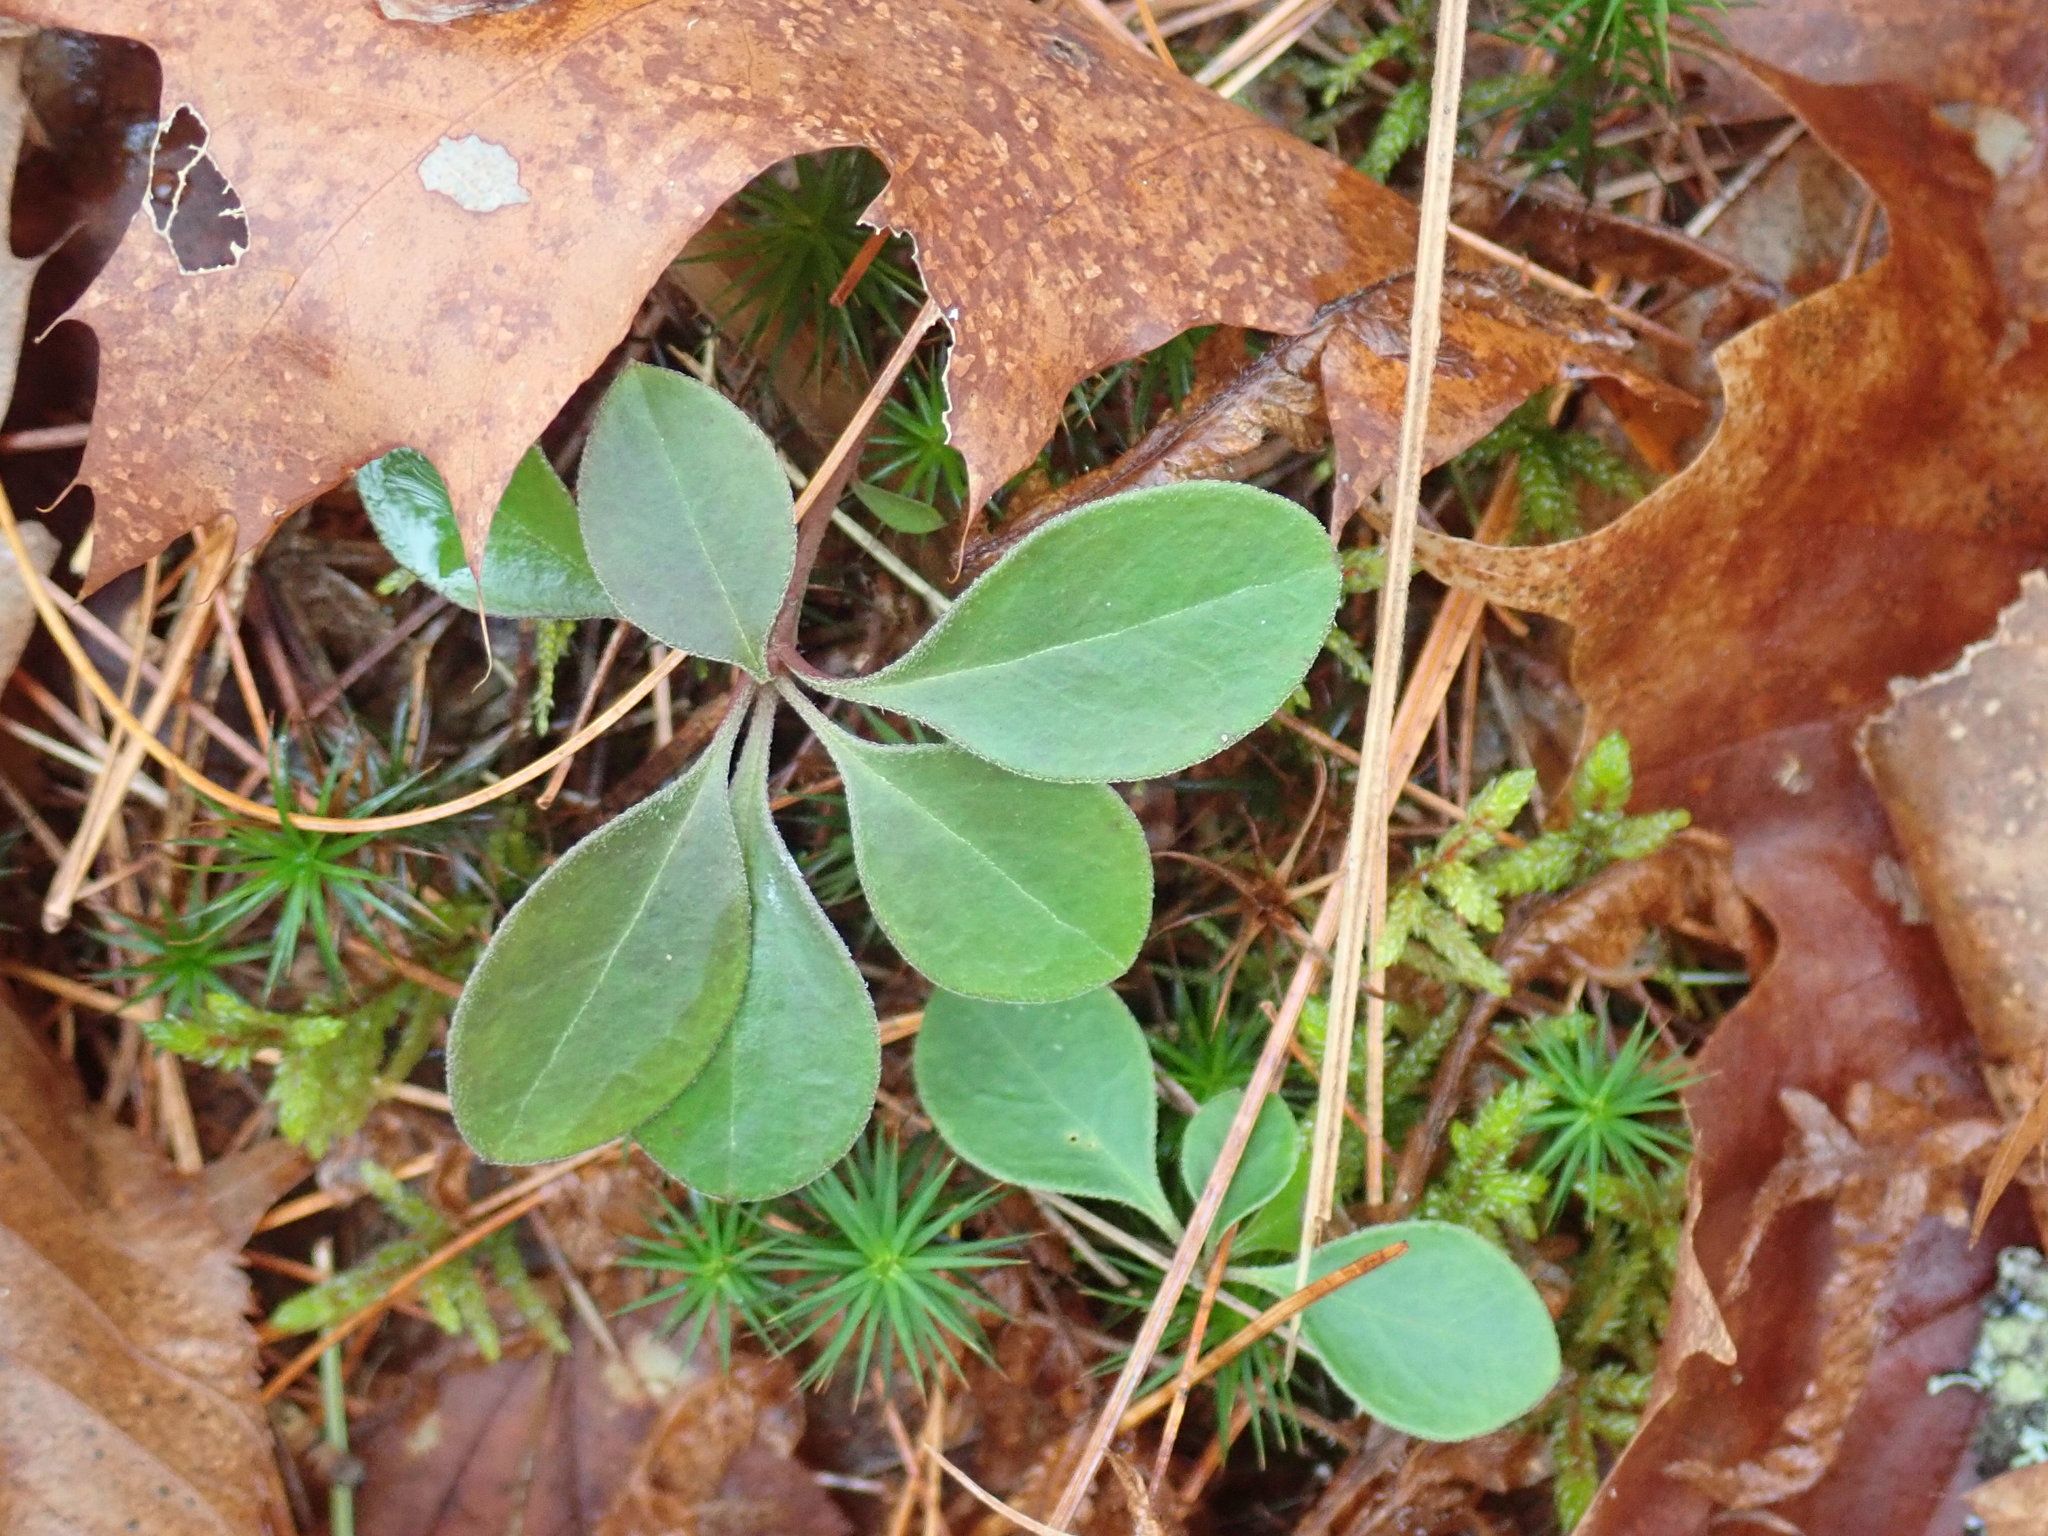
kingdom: Plantae
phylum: Tracheophyta
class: Magnoliopsida
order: Fabales
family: Polygalaceae
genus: Polygaloides
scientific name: Polygaloides paucifolia
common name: Bird-on-the-wing
